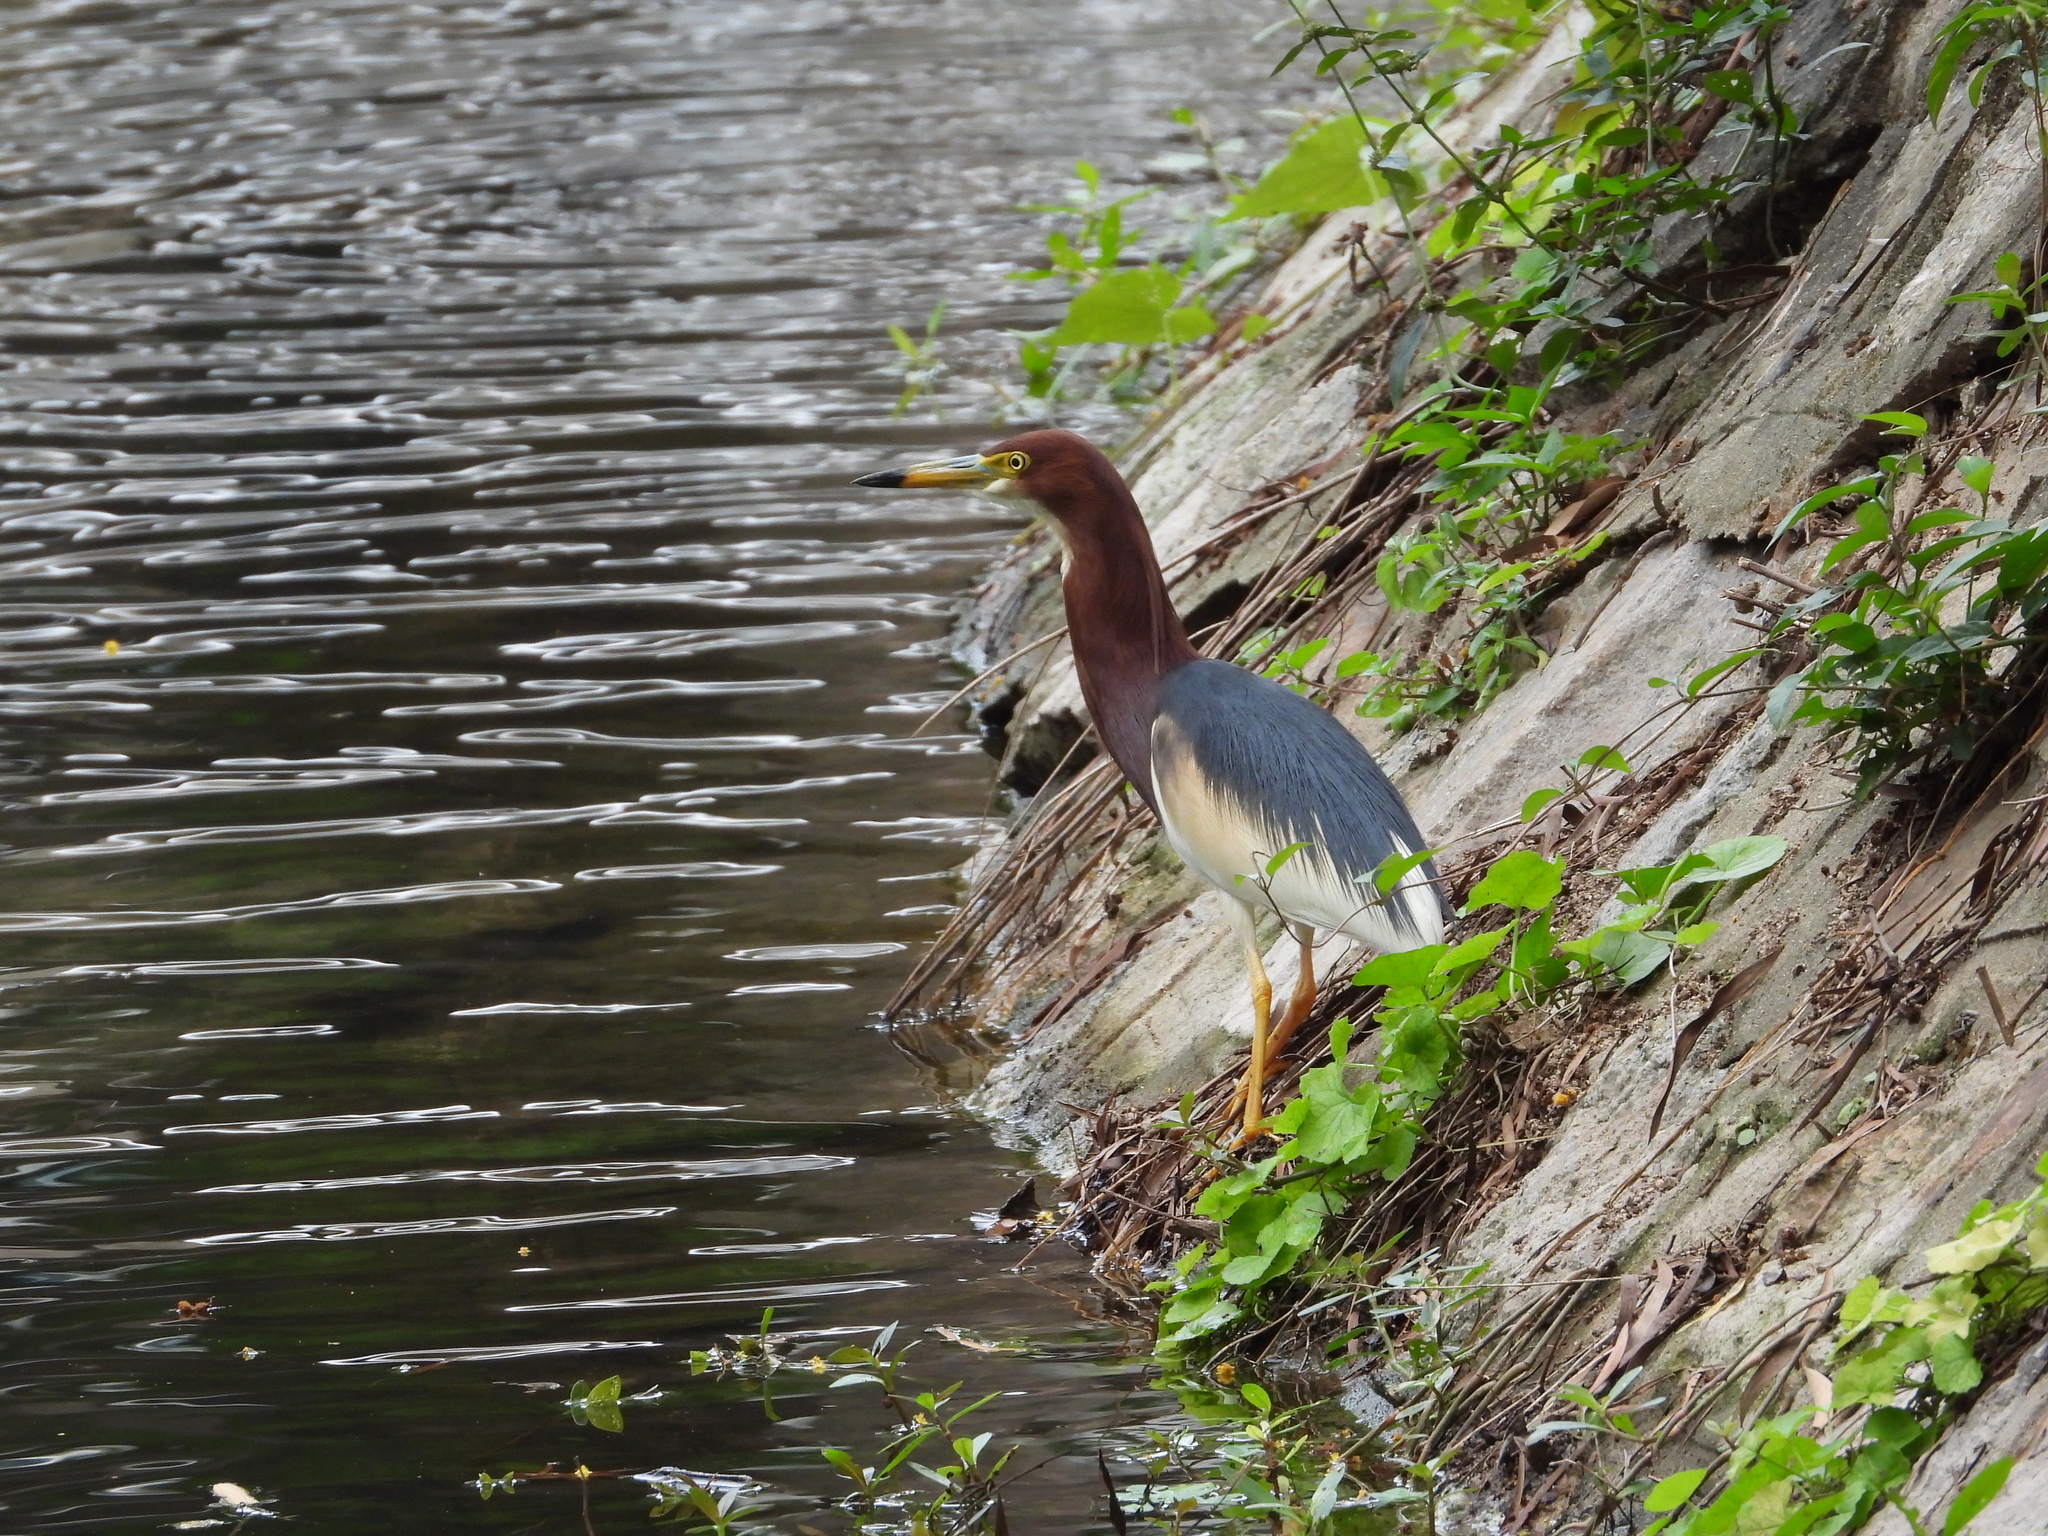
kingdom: Animalia
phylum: Chordata
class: Aves
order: Pelecaniformes
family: Ardeidae
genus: Ardeola
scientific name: Ardeola bacchus
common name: Chinese pond heron
